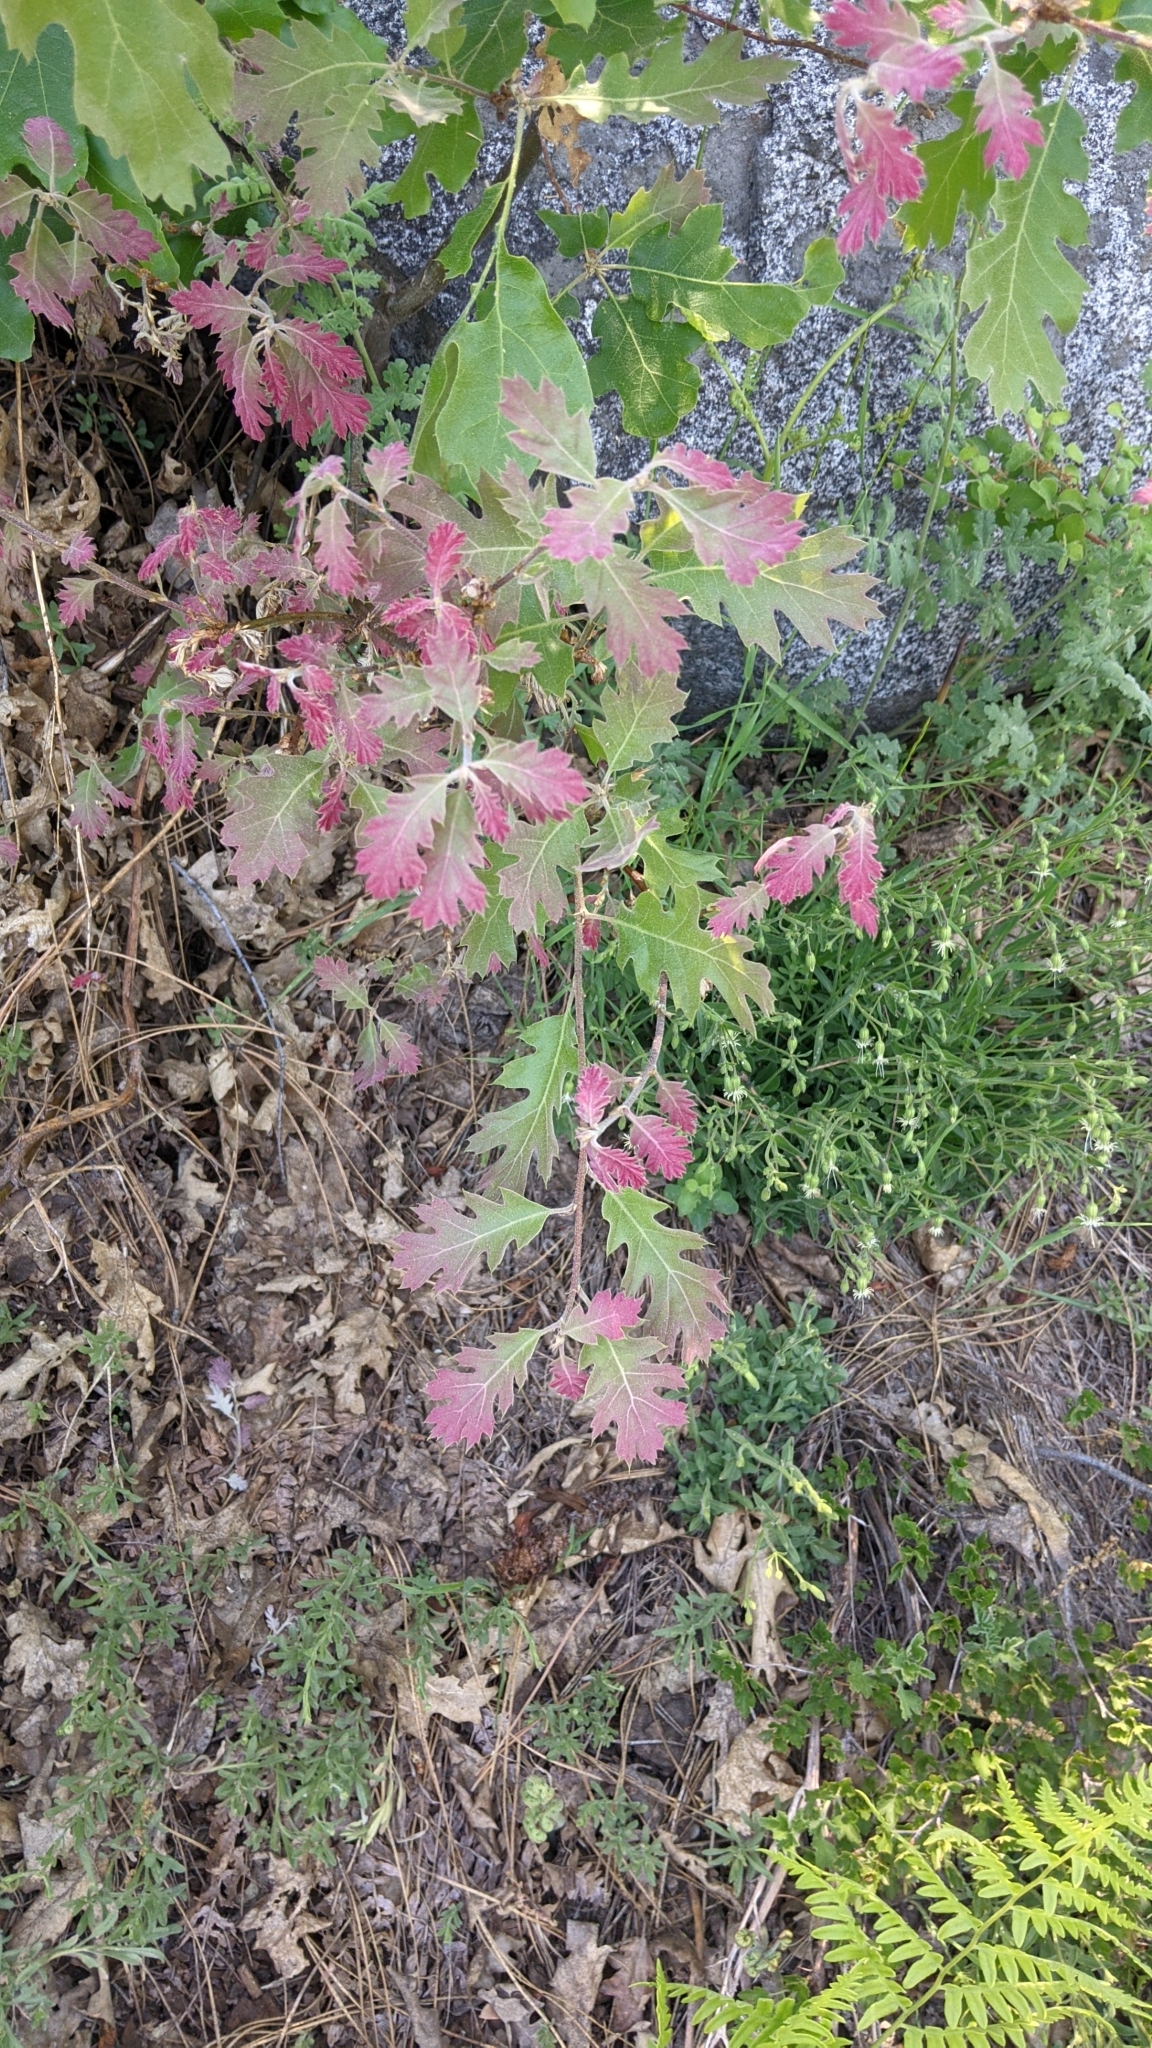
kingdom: Plantae
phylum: Tracheophyta
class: Magnoliopsida
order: Fagales
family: Fagaceae
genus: Quercus
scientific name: Quercus kelloggii
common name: California black oak
